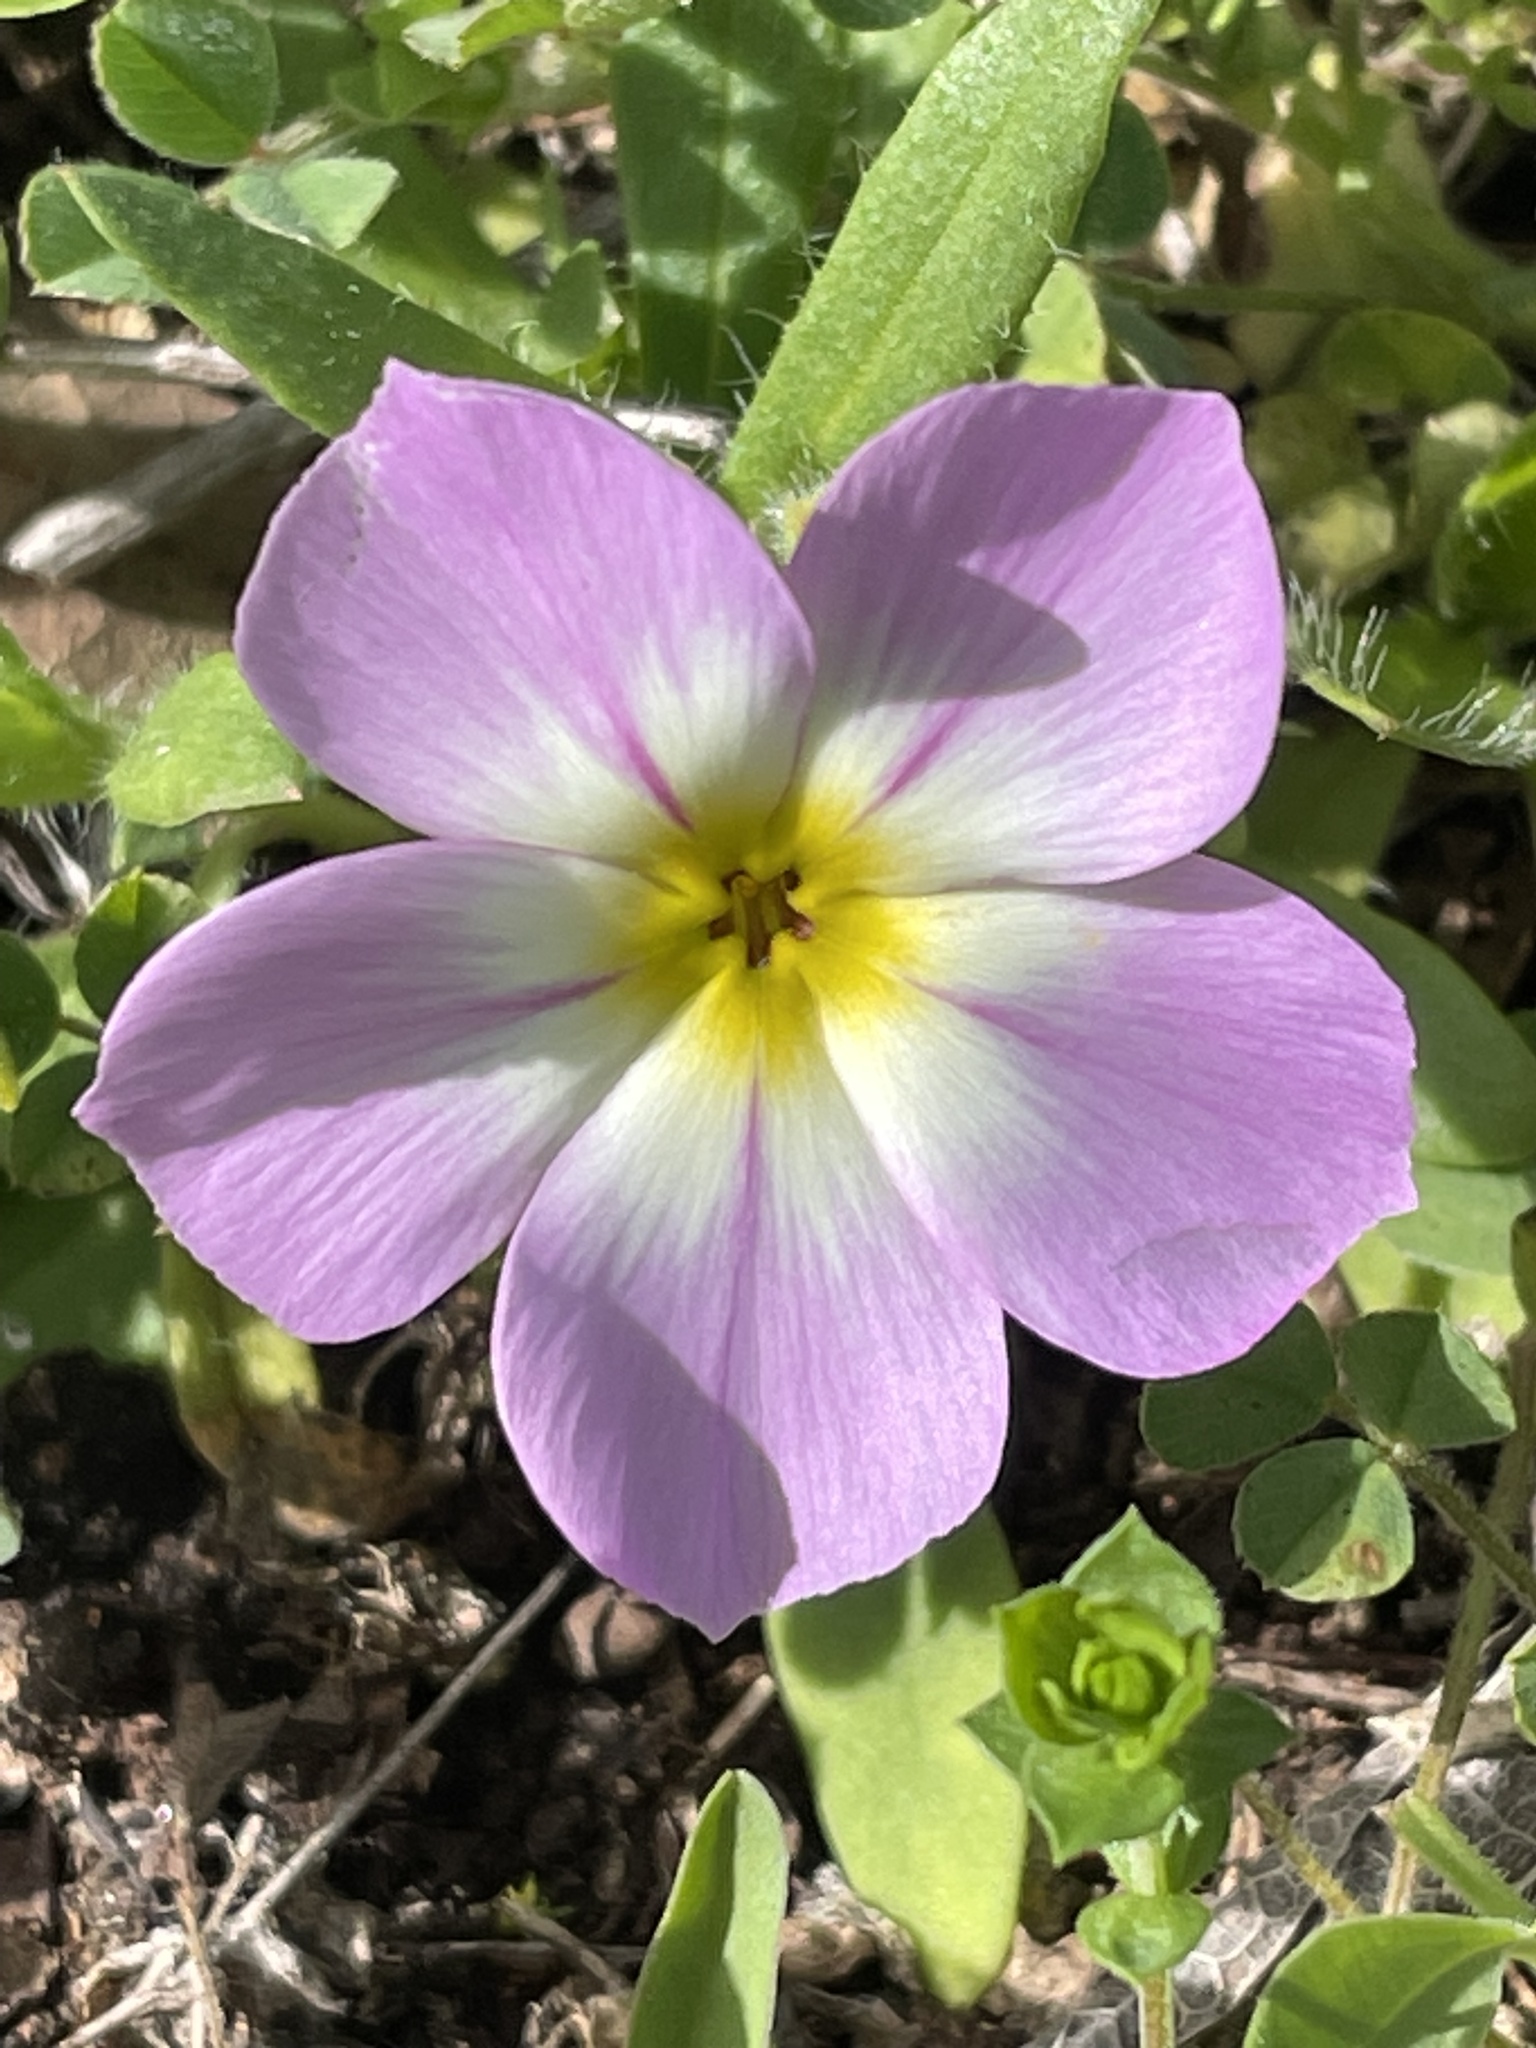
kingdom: Plantae
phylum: Tracheophyta
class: Magnoliopsida
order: Ericales
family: Polemoniaceae
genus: Phlox
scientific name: Phlox roemeriana
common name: Roemer's phlox
